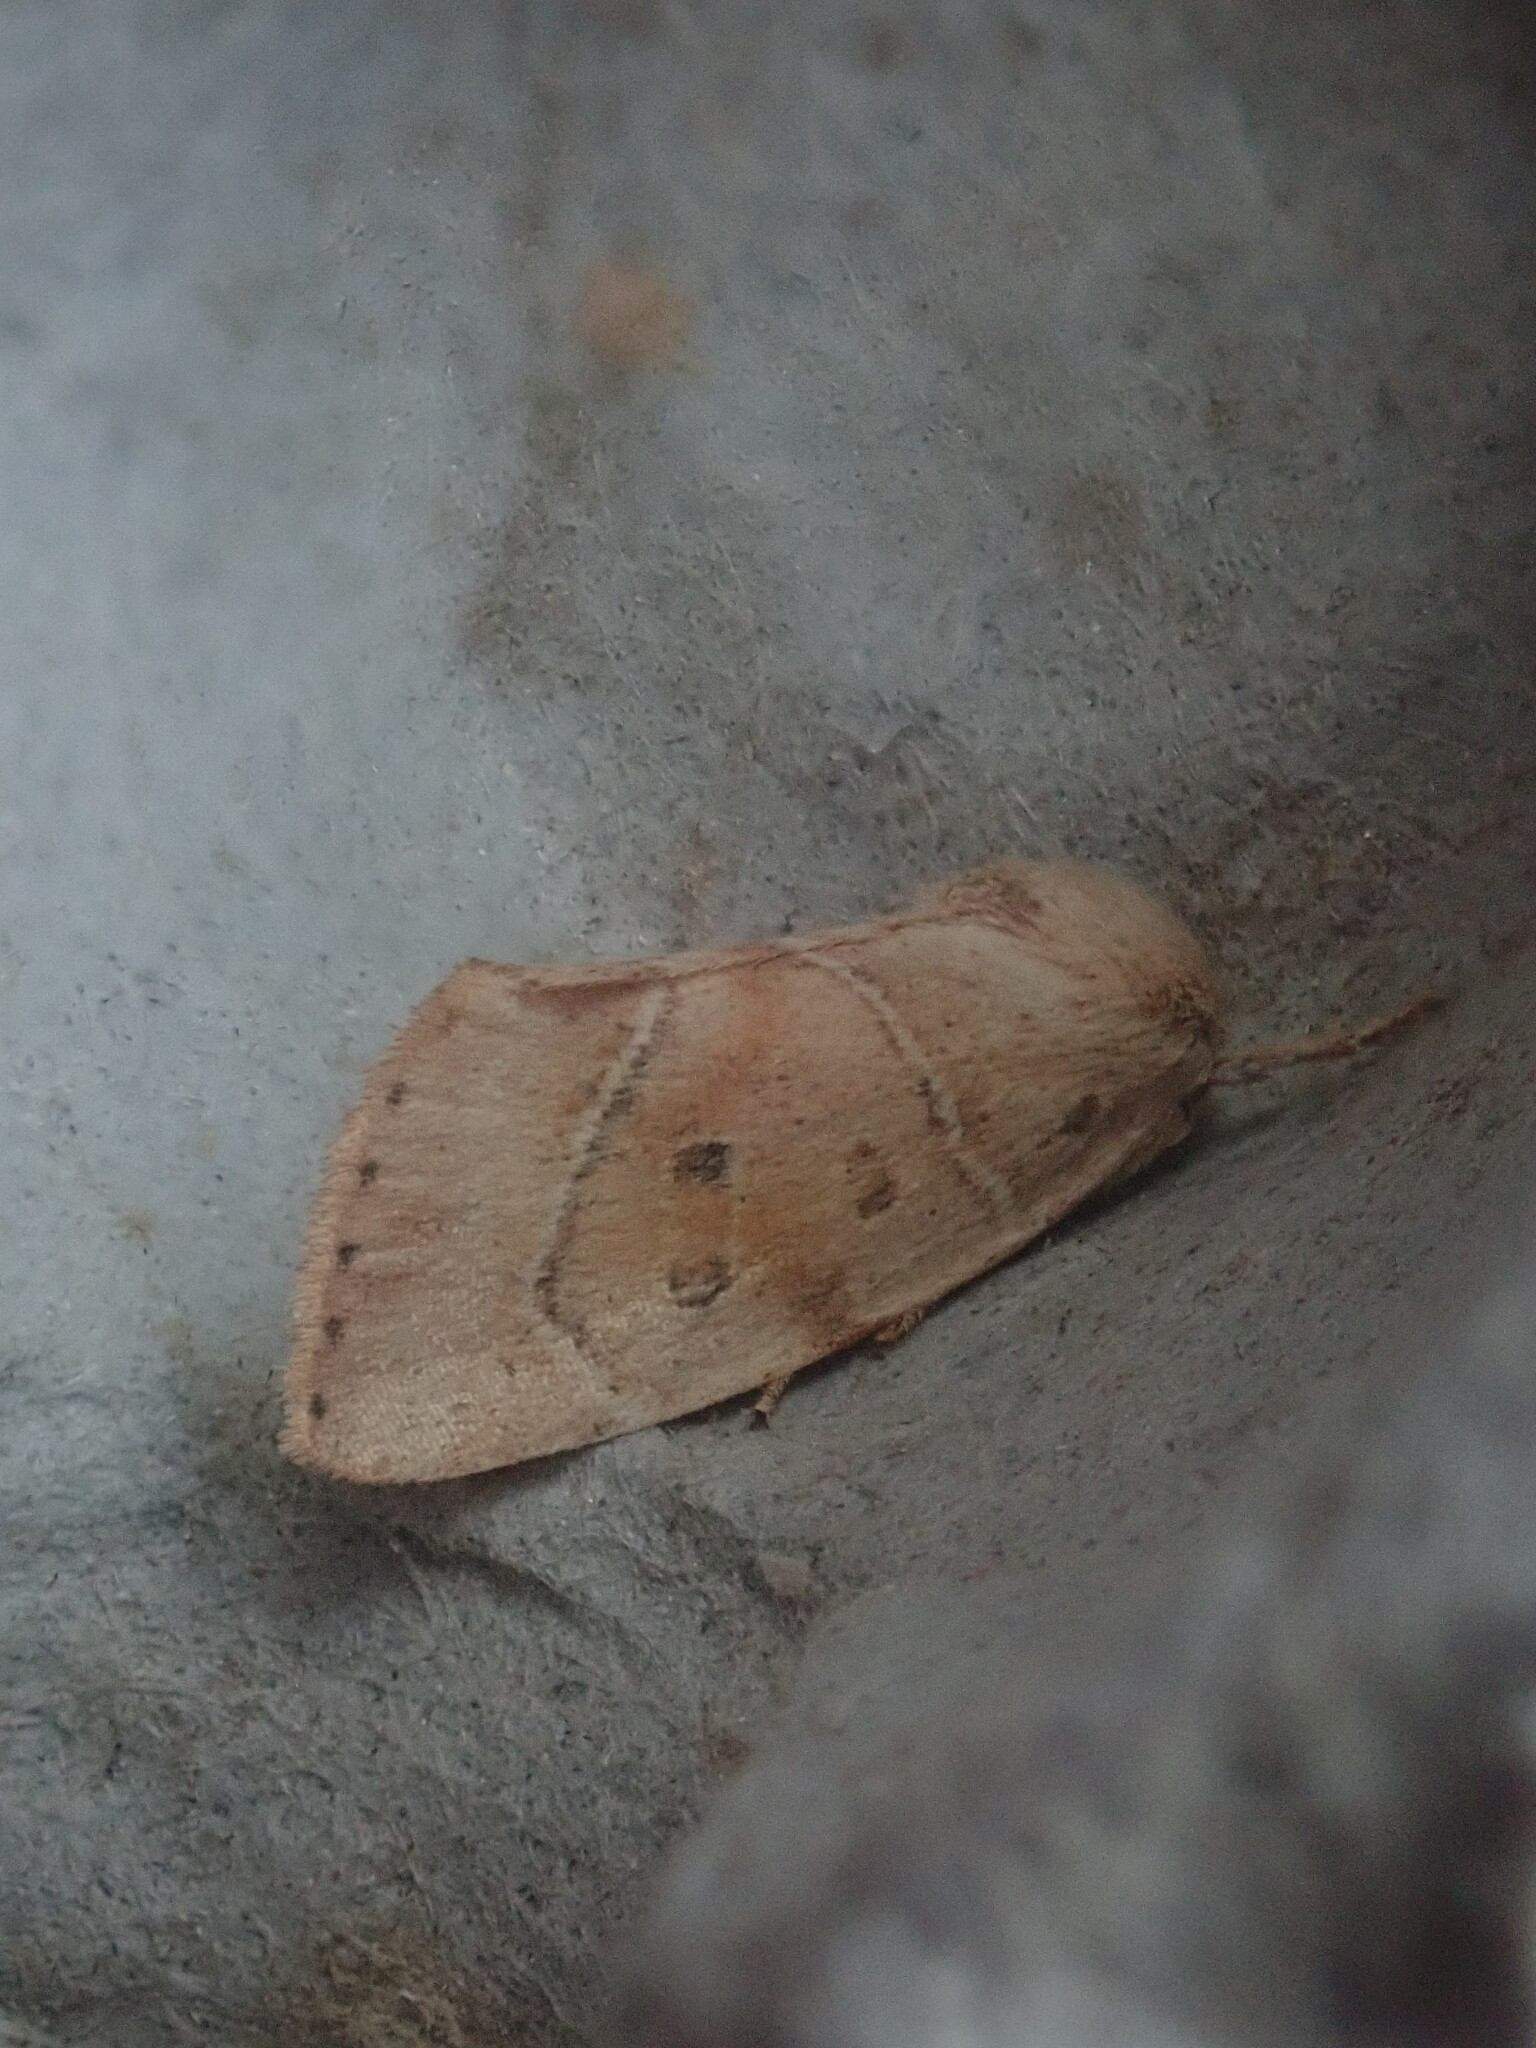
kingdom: Animalia
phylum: Arthropoda
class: Insecta
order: Lepidoptera
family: Noctuidae
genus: Cosmia
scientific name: Cosmia calami
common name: American dun-bar moth
